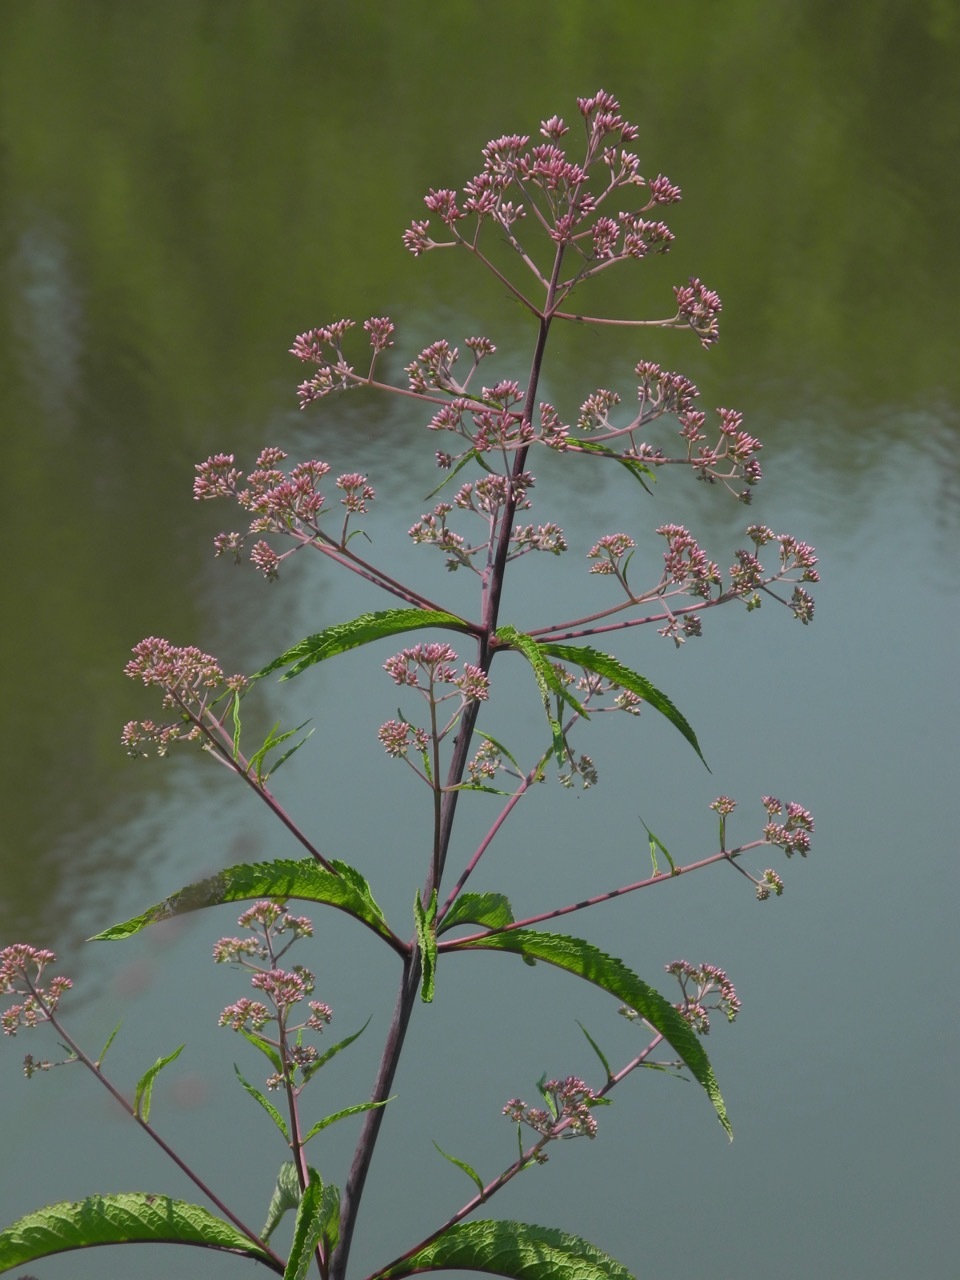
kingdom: Plantae
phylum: Tracheophyta
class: Magnoliopsida
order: Asterales
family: Asteraceae
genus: Eutrochium
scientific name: Eutrochium fistulosum
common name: Trumpetweed
